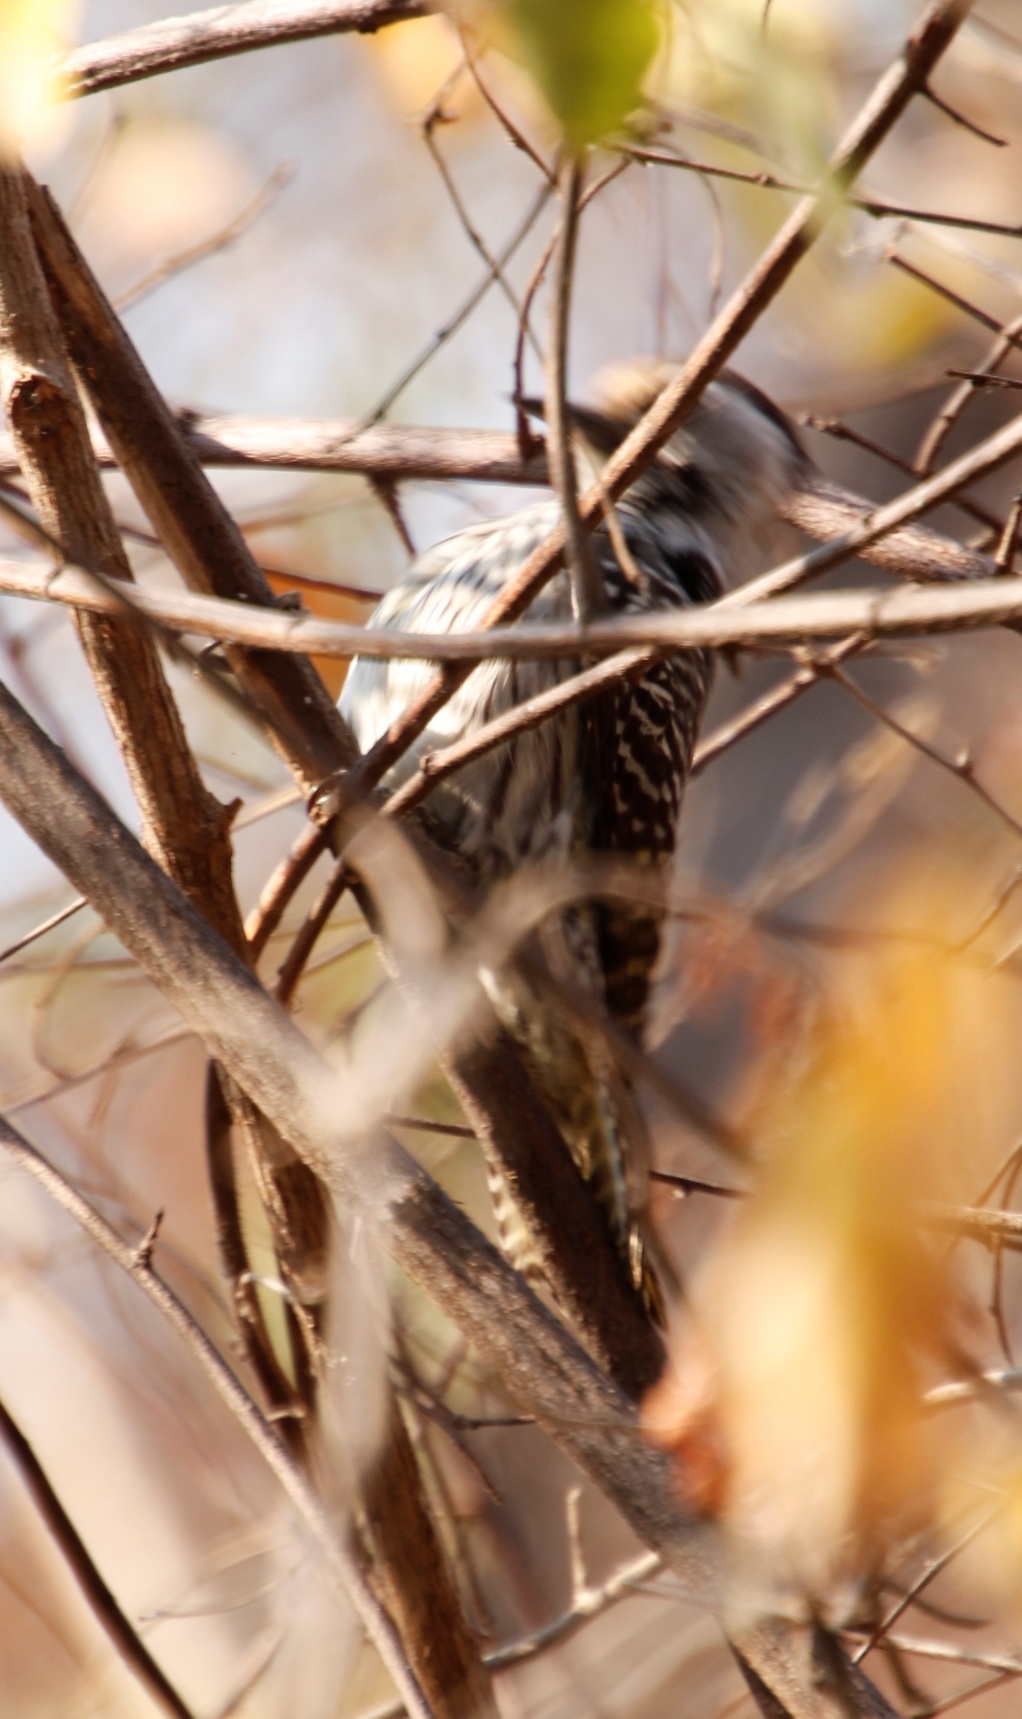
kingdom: Animalia
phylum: Chordata
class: Aves
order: Piciformes
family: Picidae
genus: Dendropicos
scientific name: Dendropicos fuscescens
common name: Cardinal woodpecker
